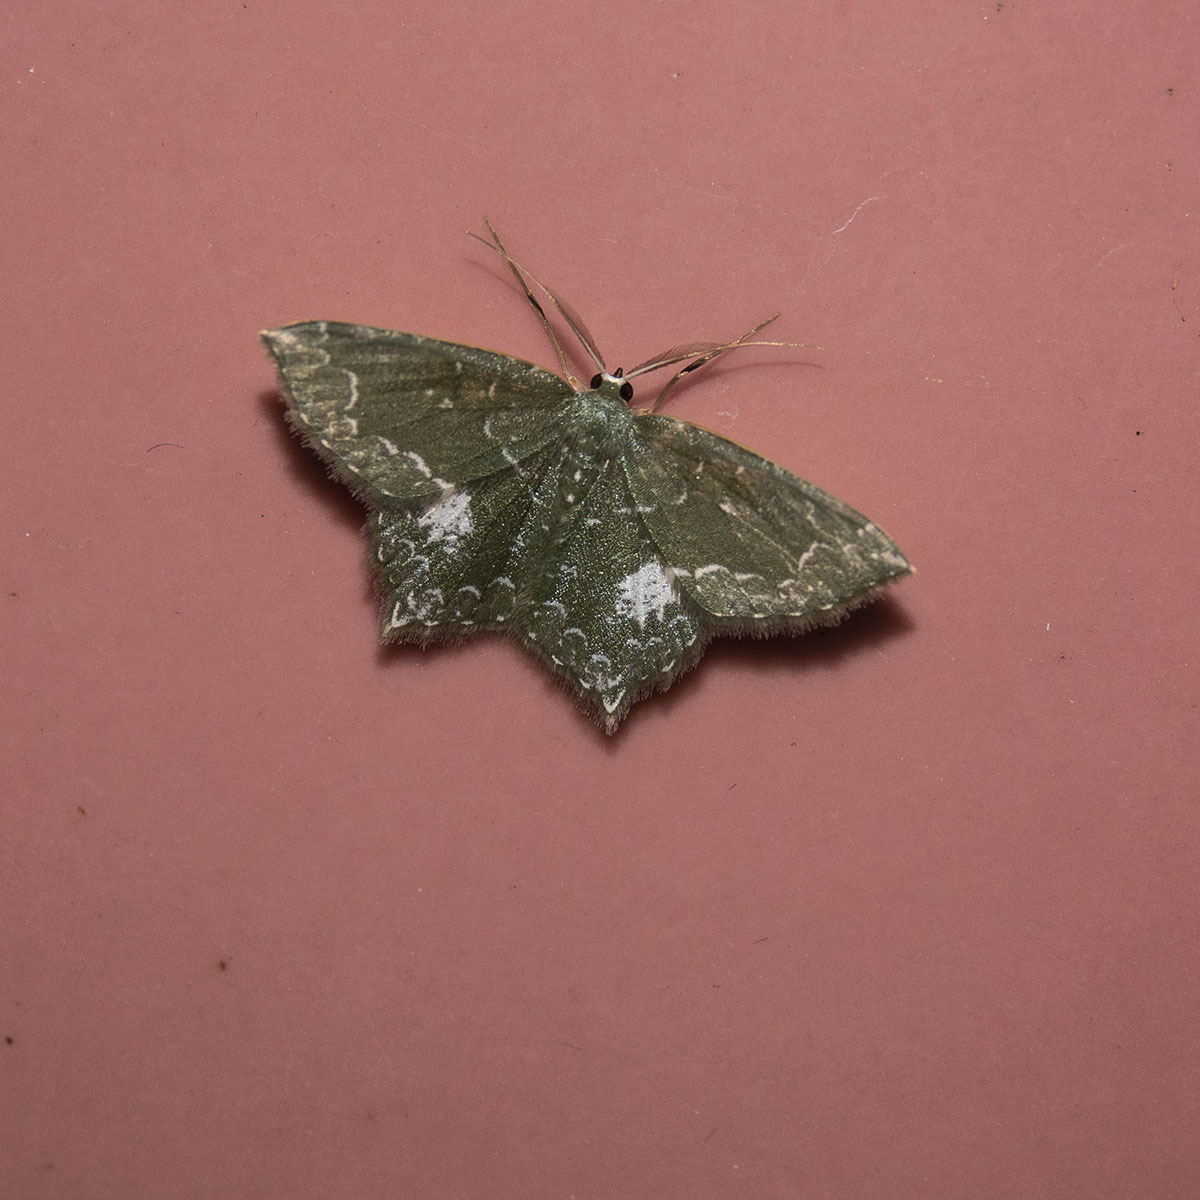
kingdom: Animalia
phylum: Arthropoda
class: Insecta
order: Lepidoptera
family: Geometridae
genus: Berta
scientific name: Berta acte
